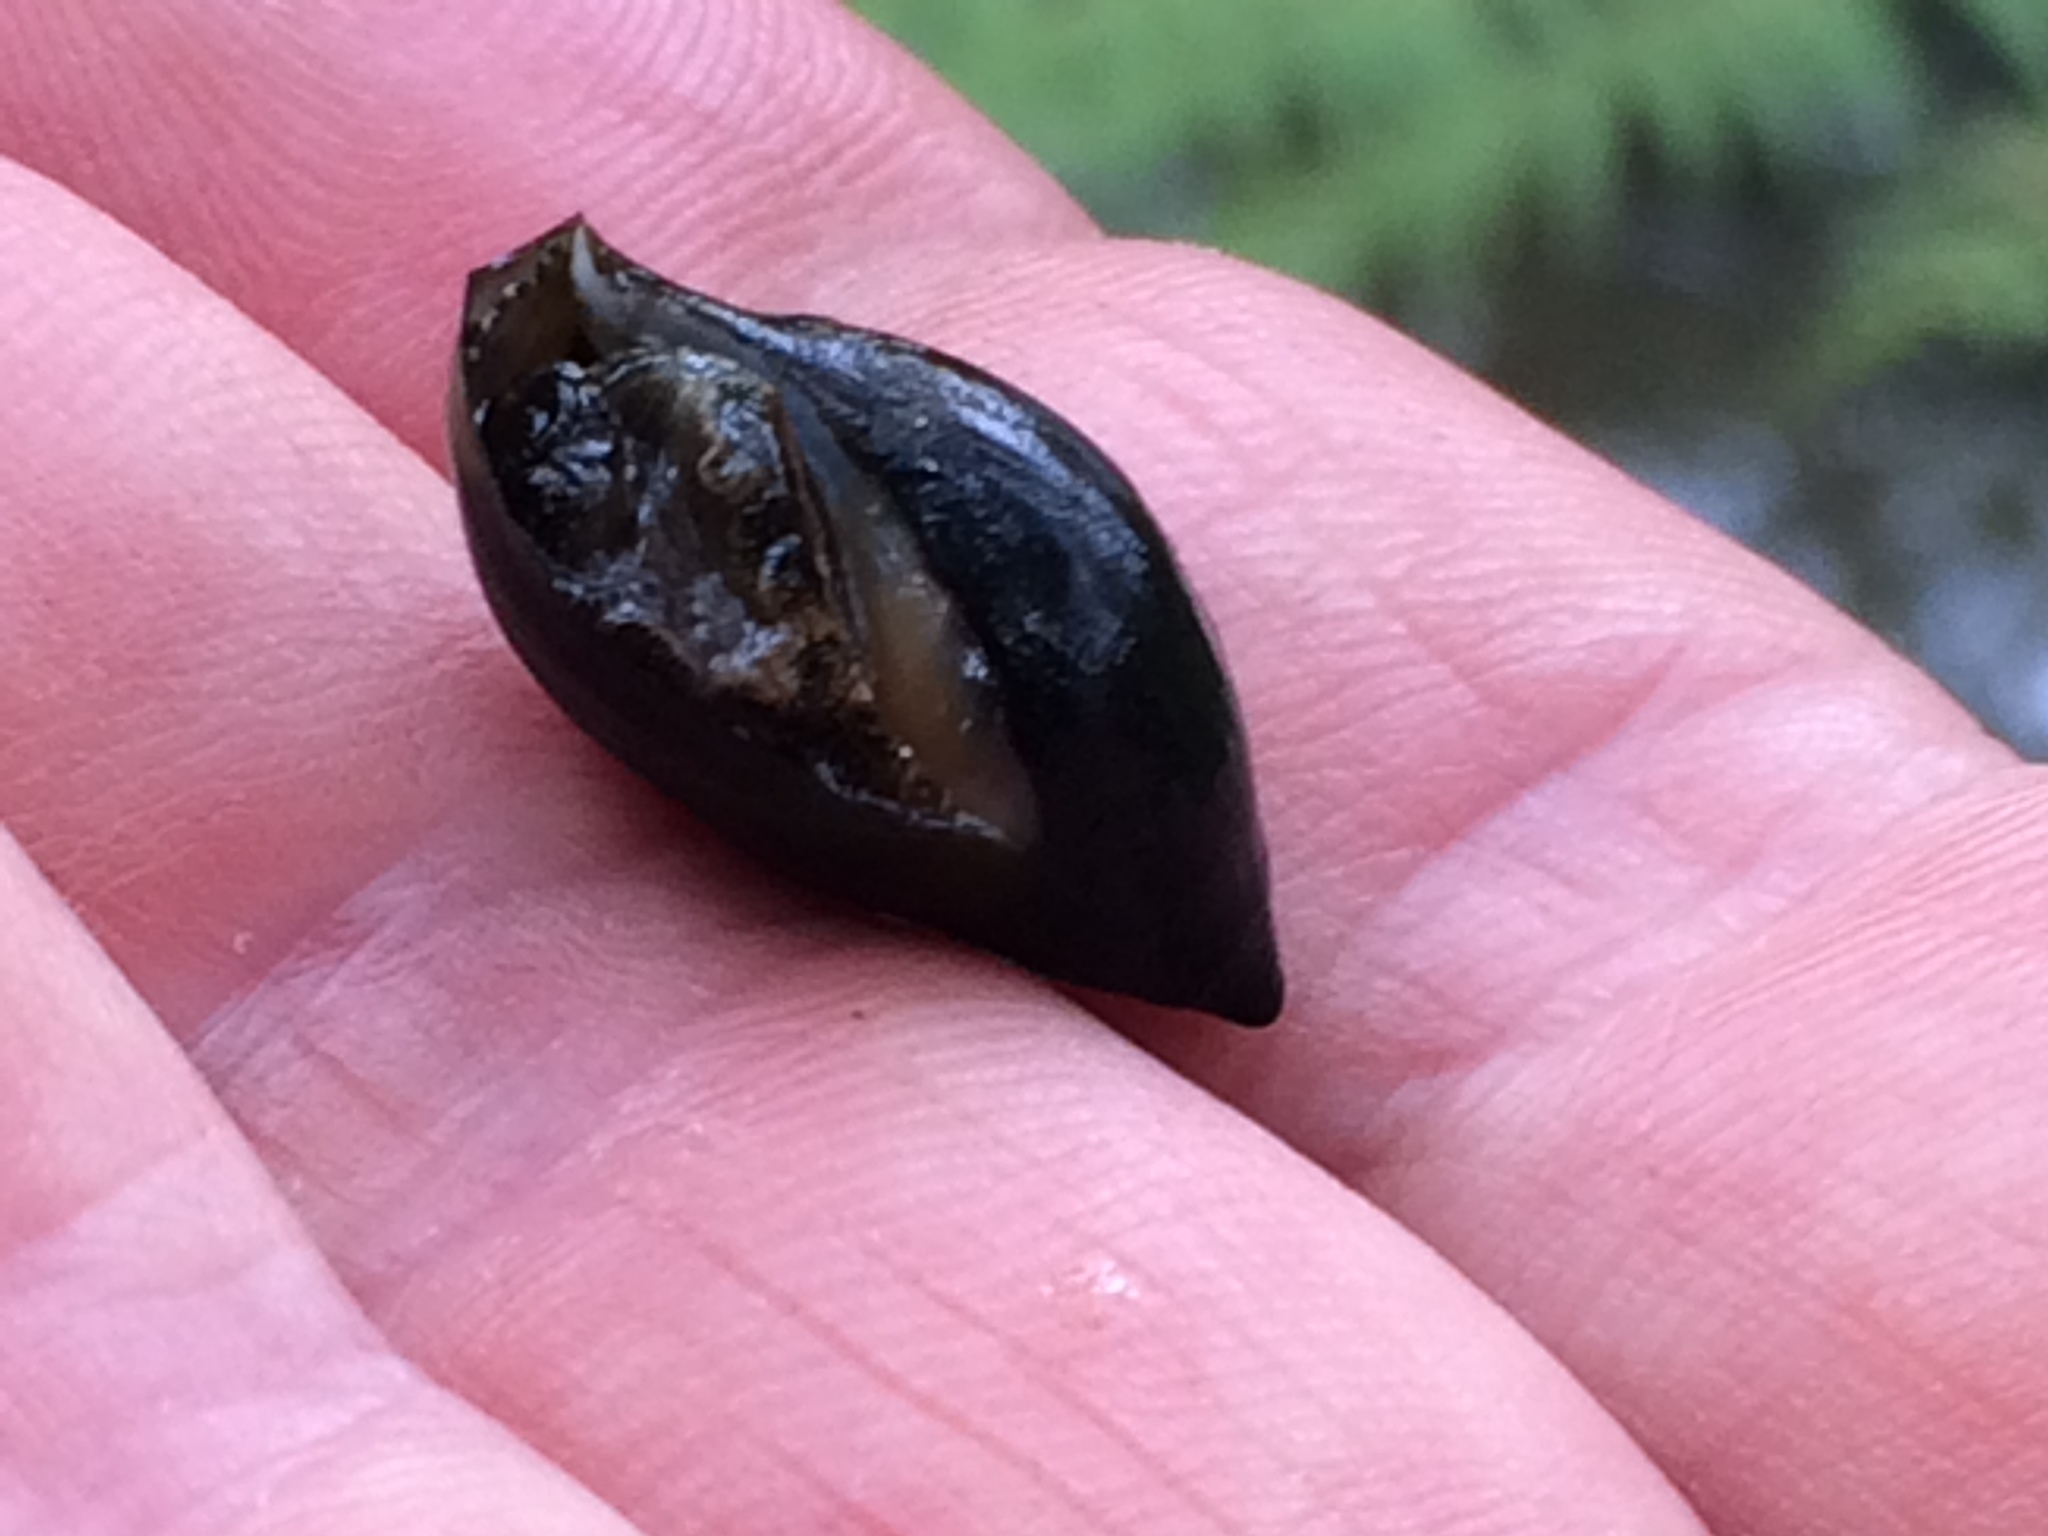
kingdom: Animalia
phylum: Mollusca
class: Gastropoda
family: Zemelanopsidae
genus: Zemelanopsis
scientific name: Zemelanopsis trifasciata
